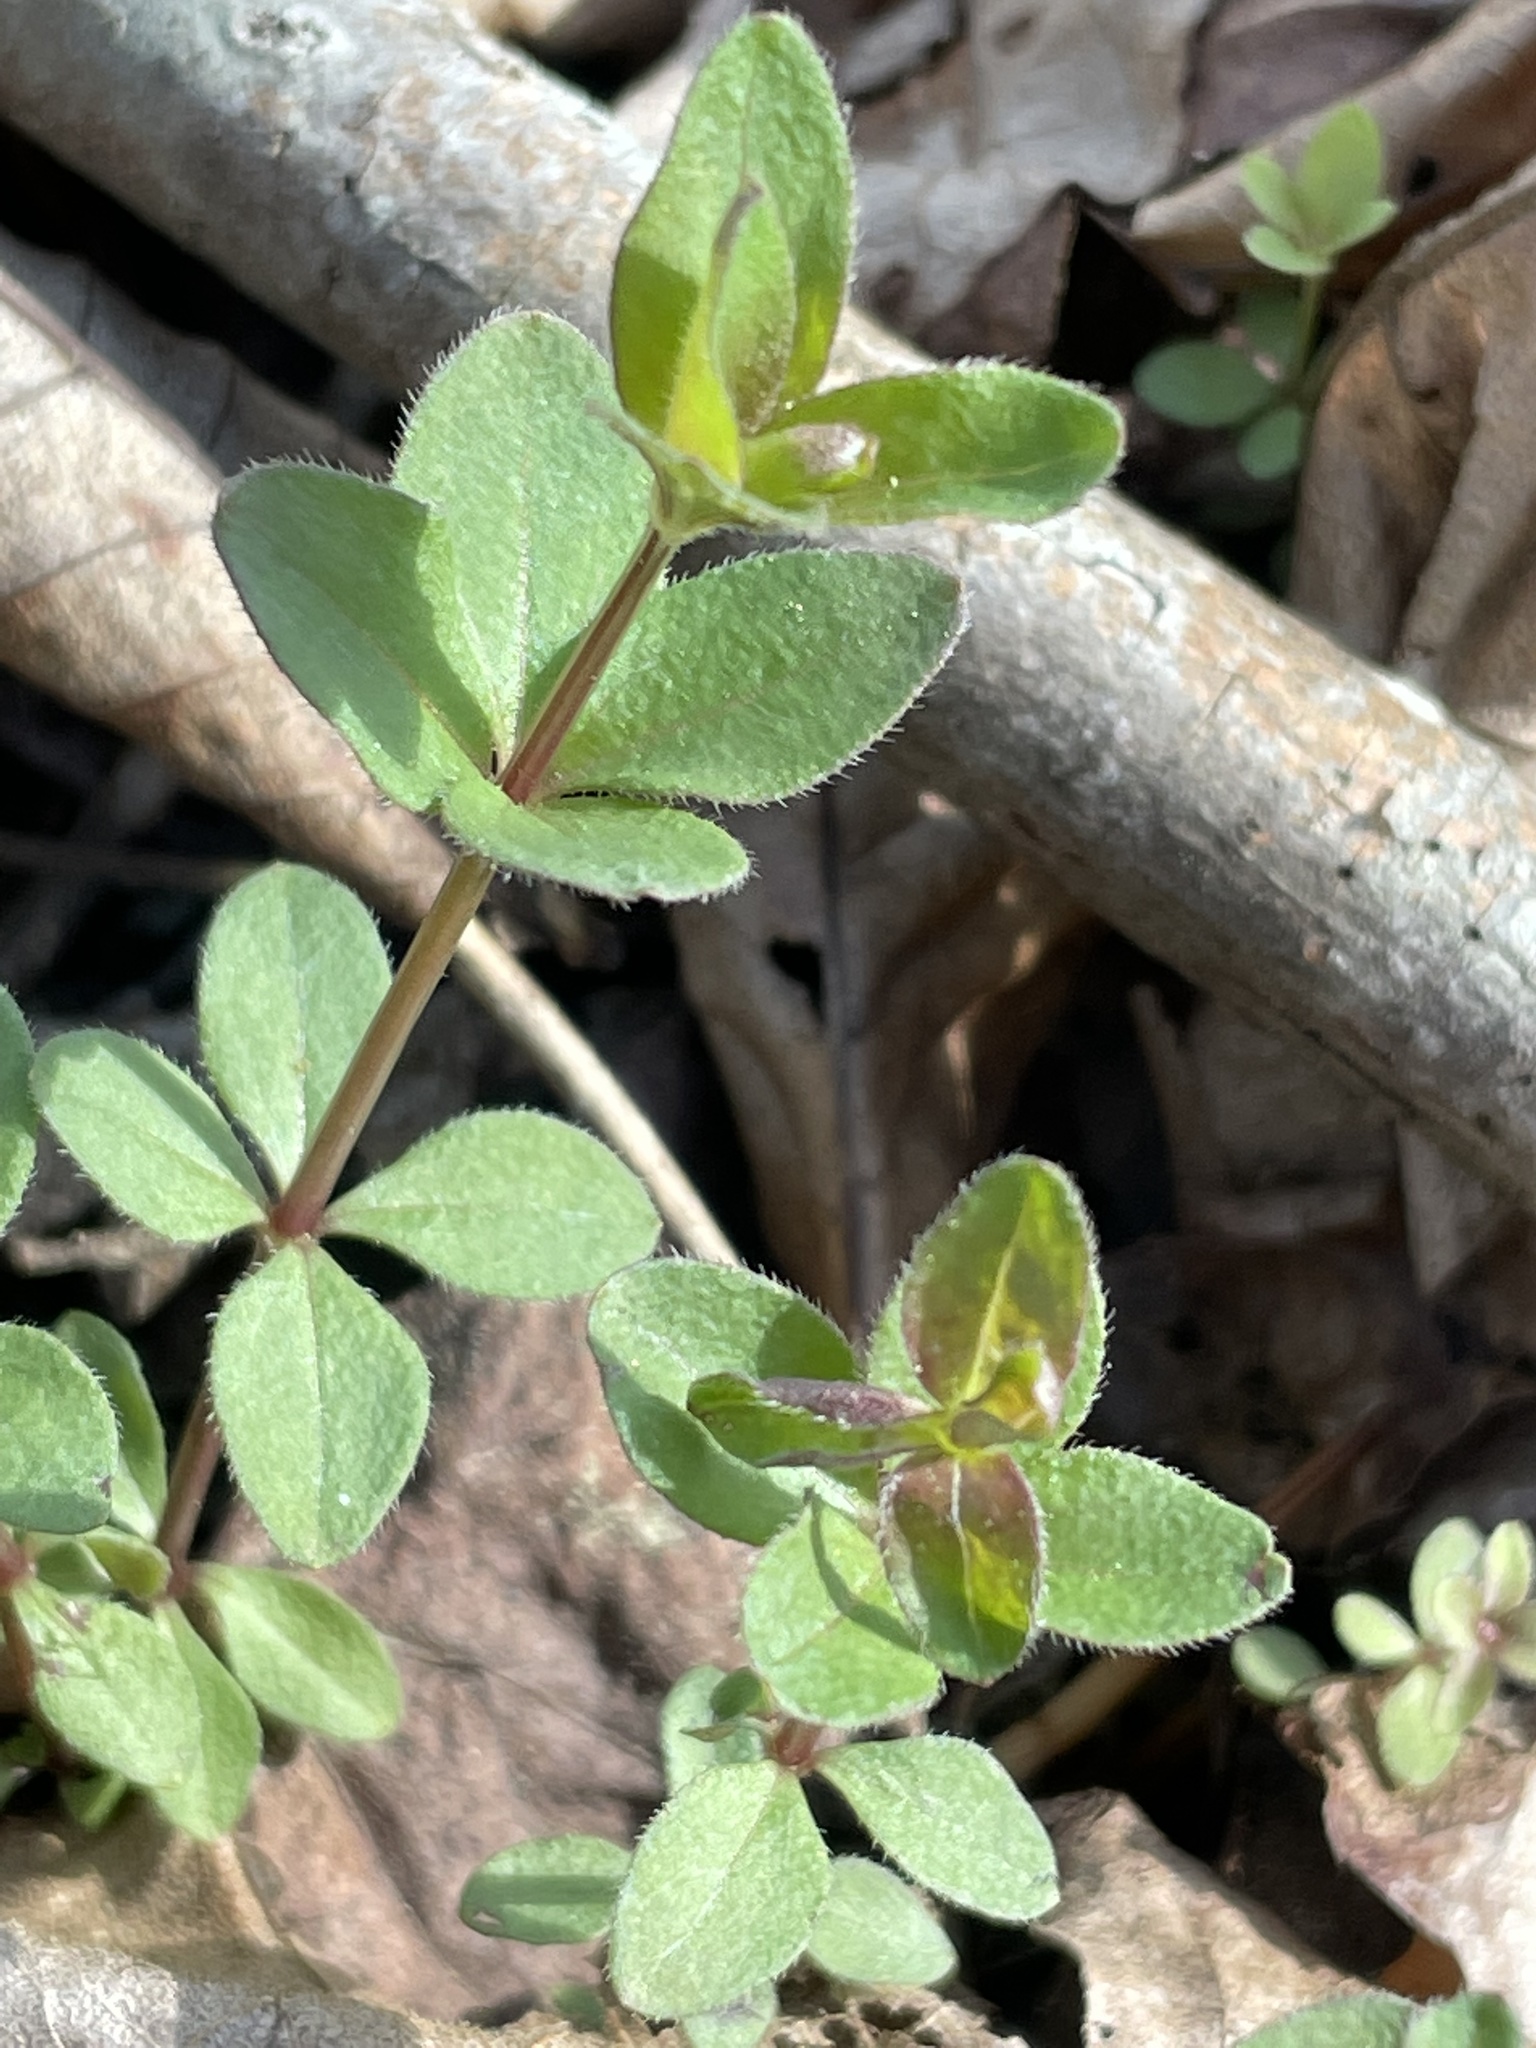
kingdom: Plantae
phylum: Tracheophyta
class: Magnoliopsida
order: Gentianales
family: Rubiaceae
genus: Galium
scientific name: Galium pilosum
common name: Hairy bedstraw
